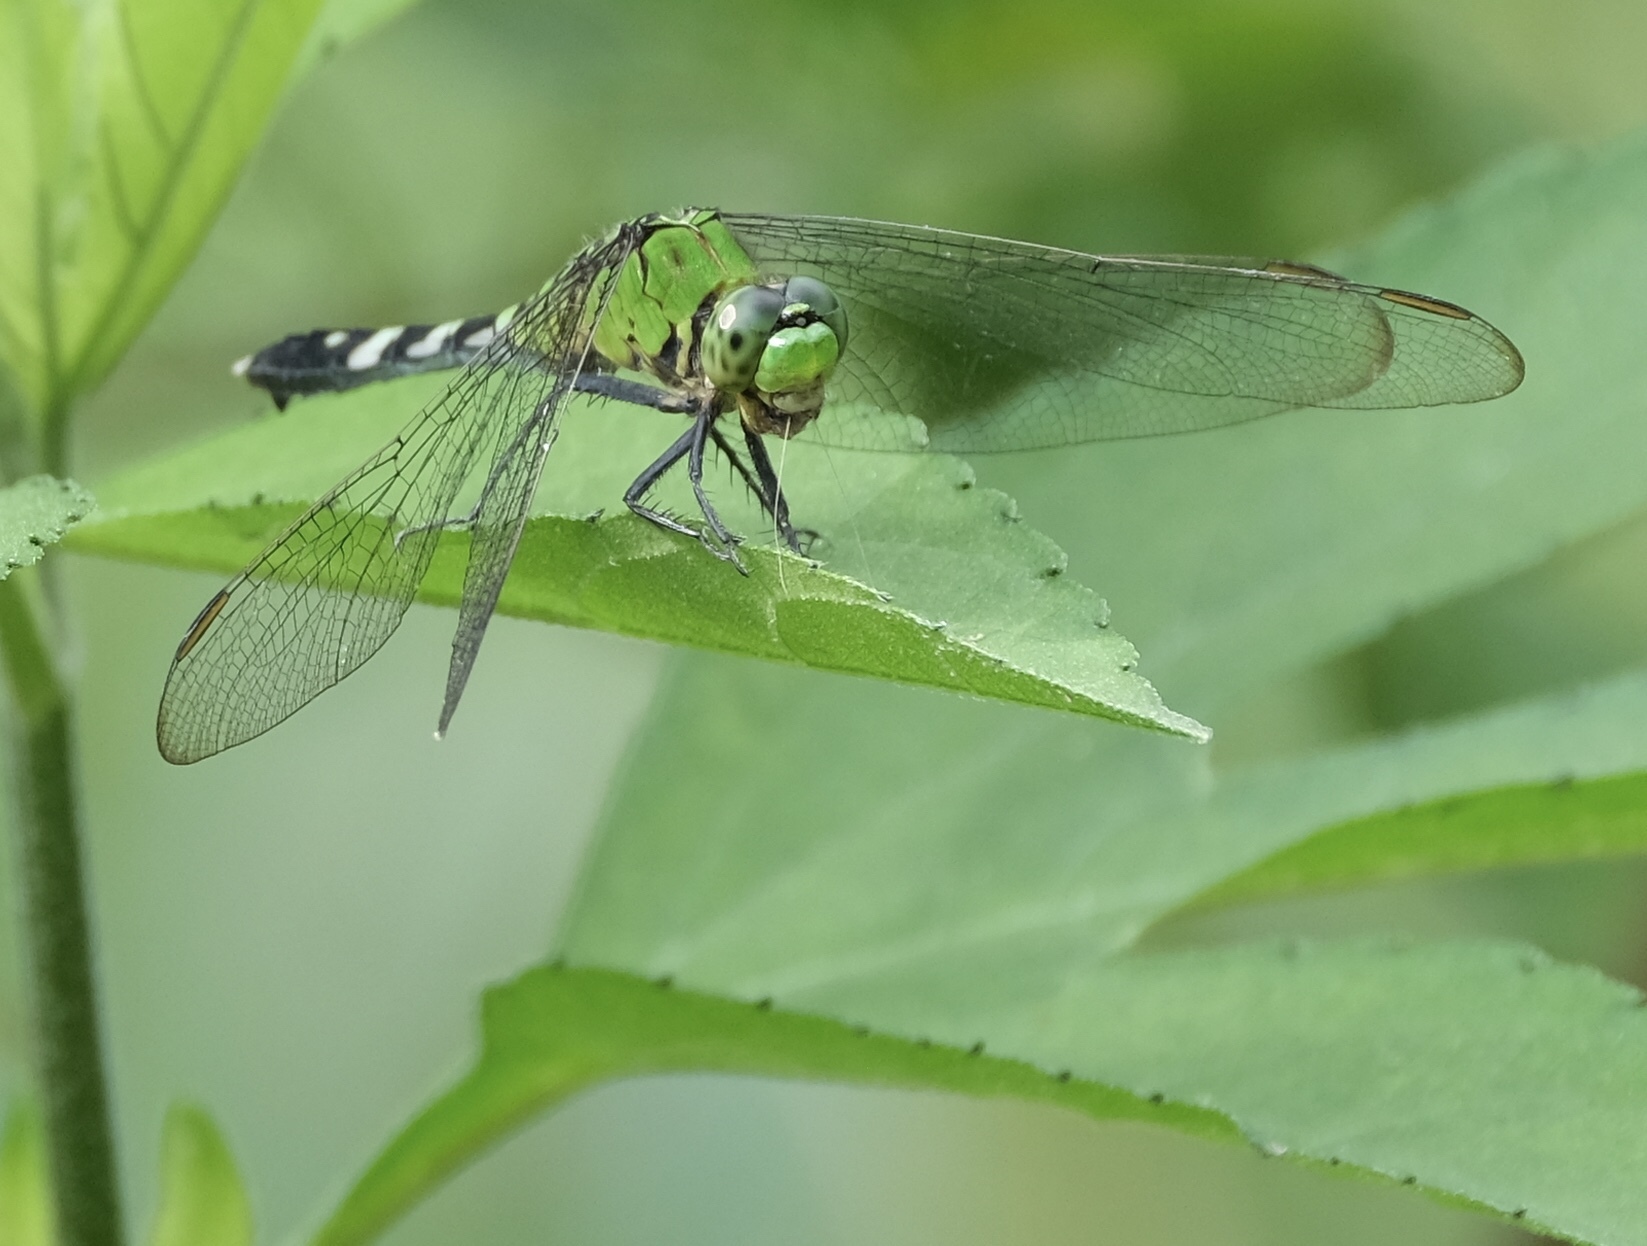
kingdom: Animalia
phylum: Arthropoda
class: Insecta
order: Odonata
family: Libellulidae
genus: Erythemis
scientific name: Erythemis simplicicollis
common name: Eastern pondhawk
